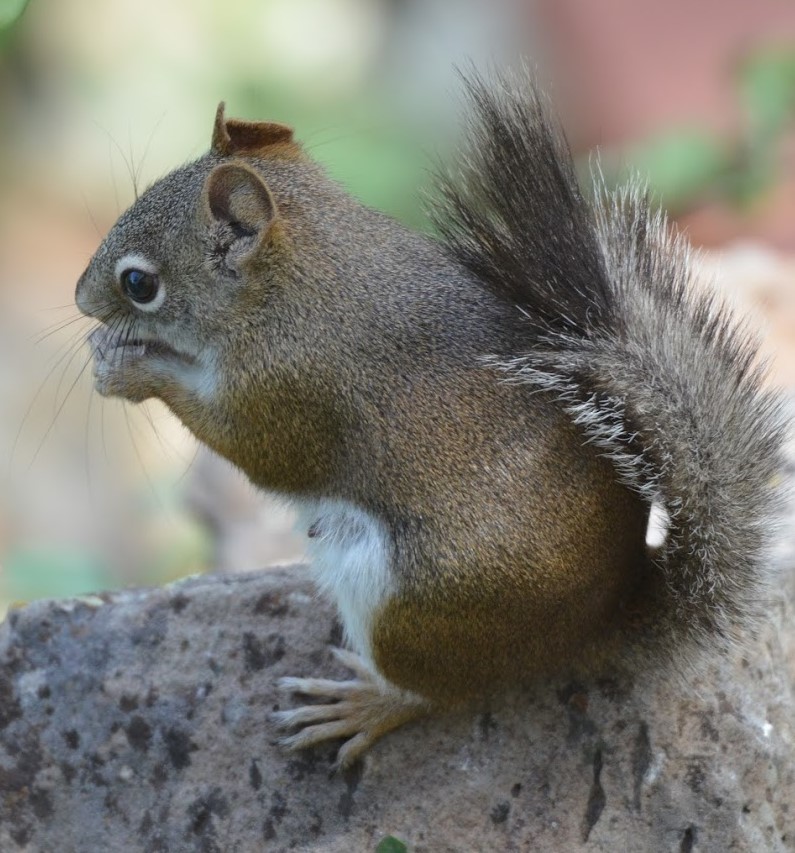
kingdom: Animalia
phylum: Chordata
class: Mammalia
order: Rodentia
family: Sciuridae
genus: Tamiasciurus
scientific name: Tamiasciurus hudsonicus
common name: Red squirrel
